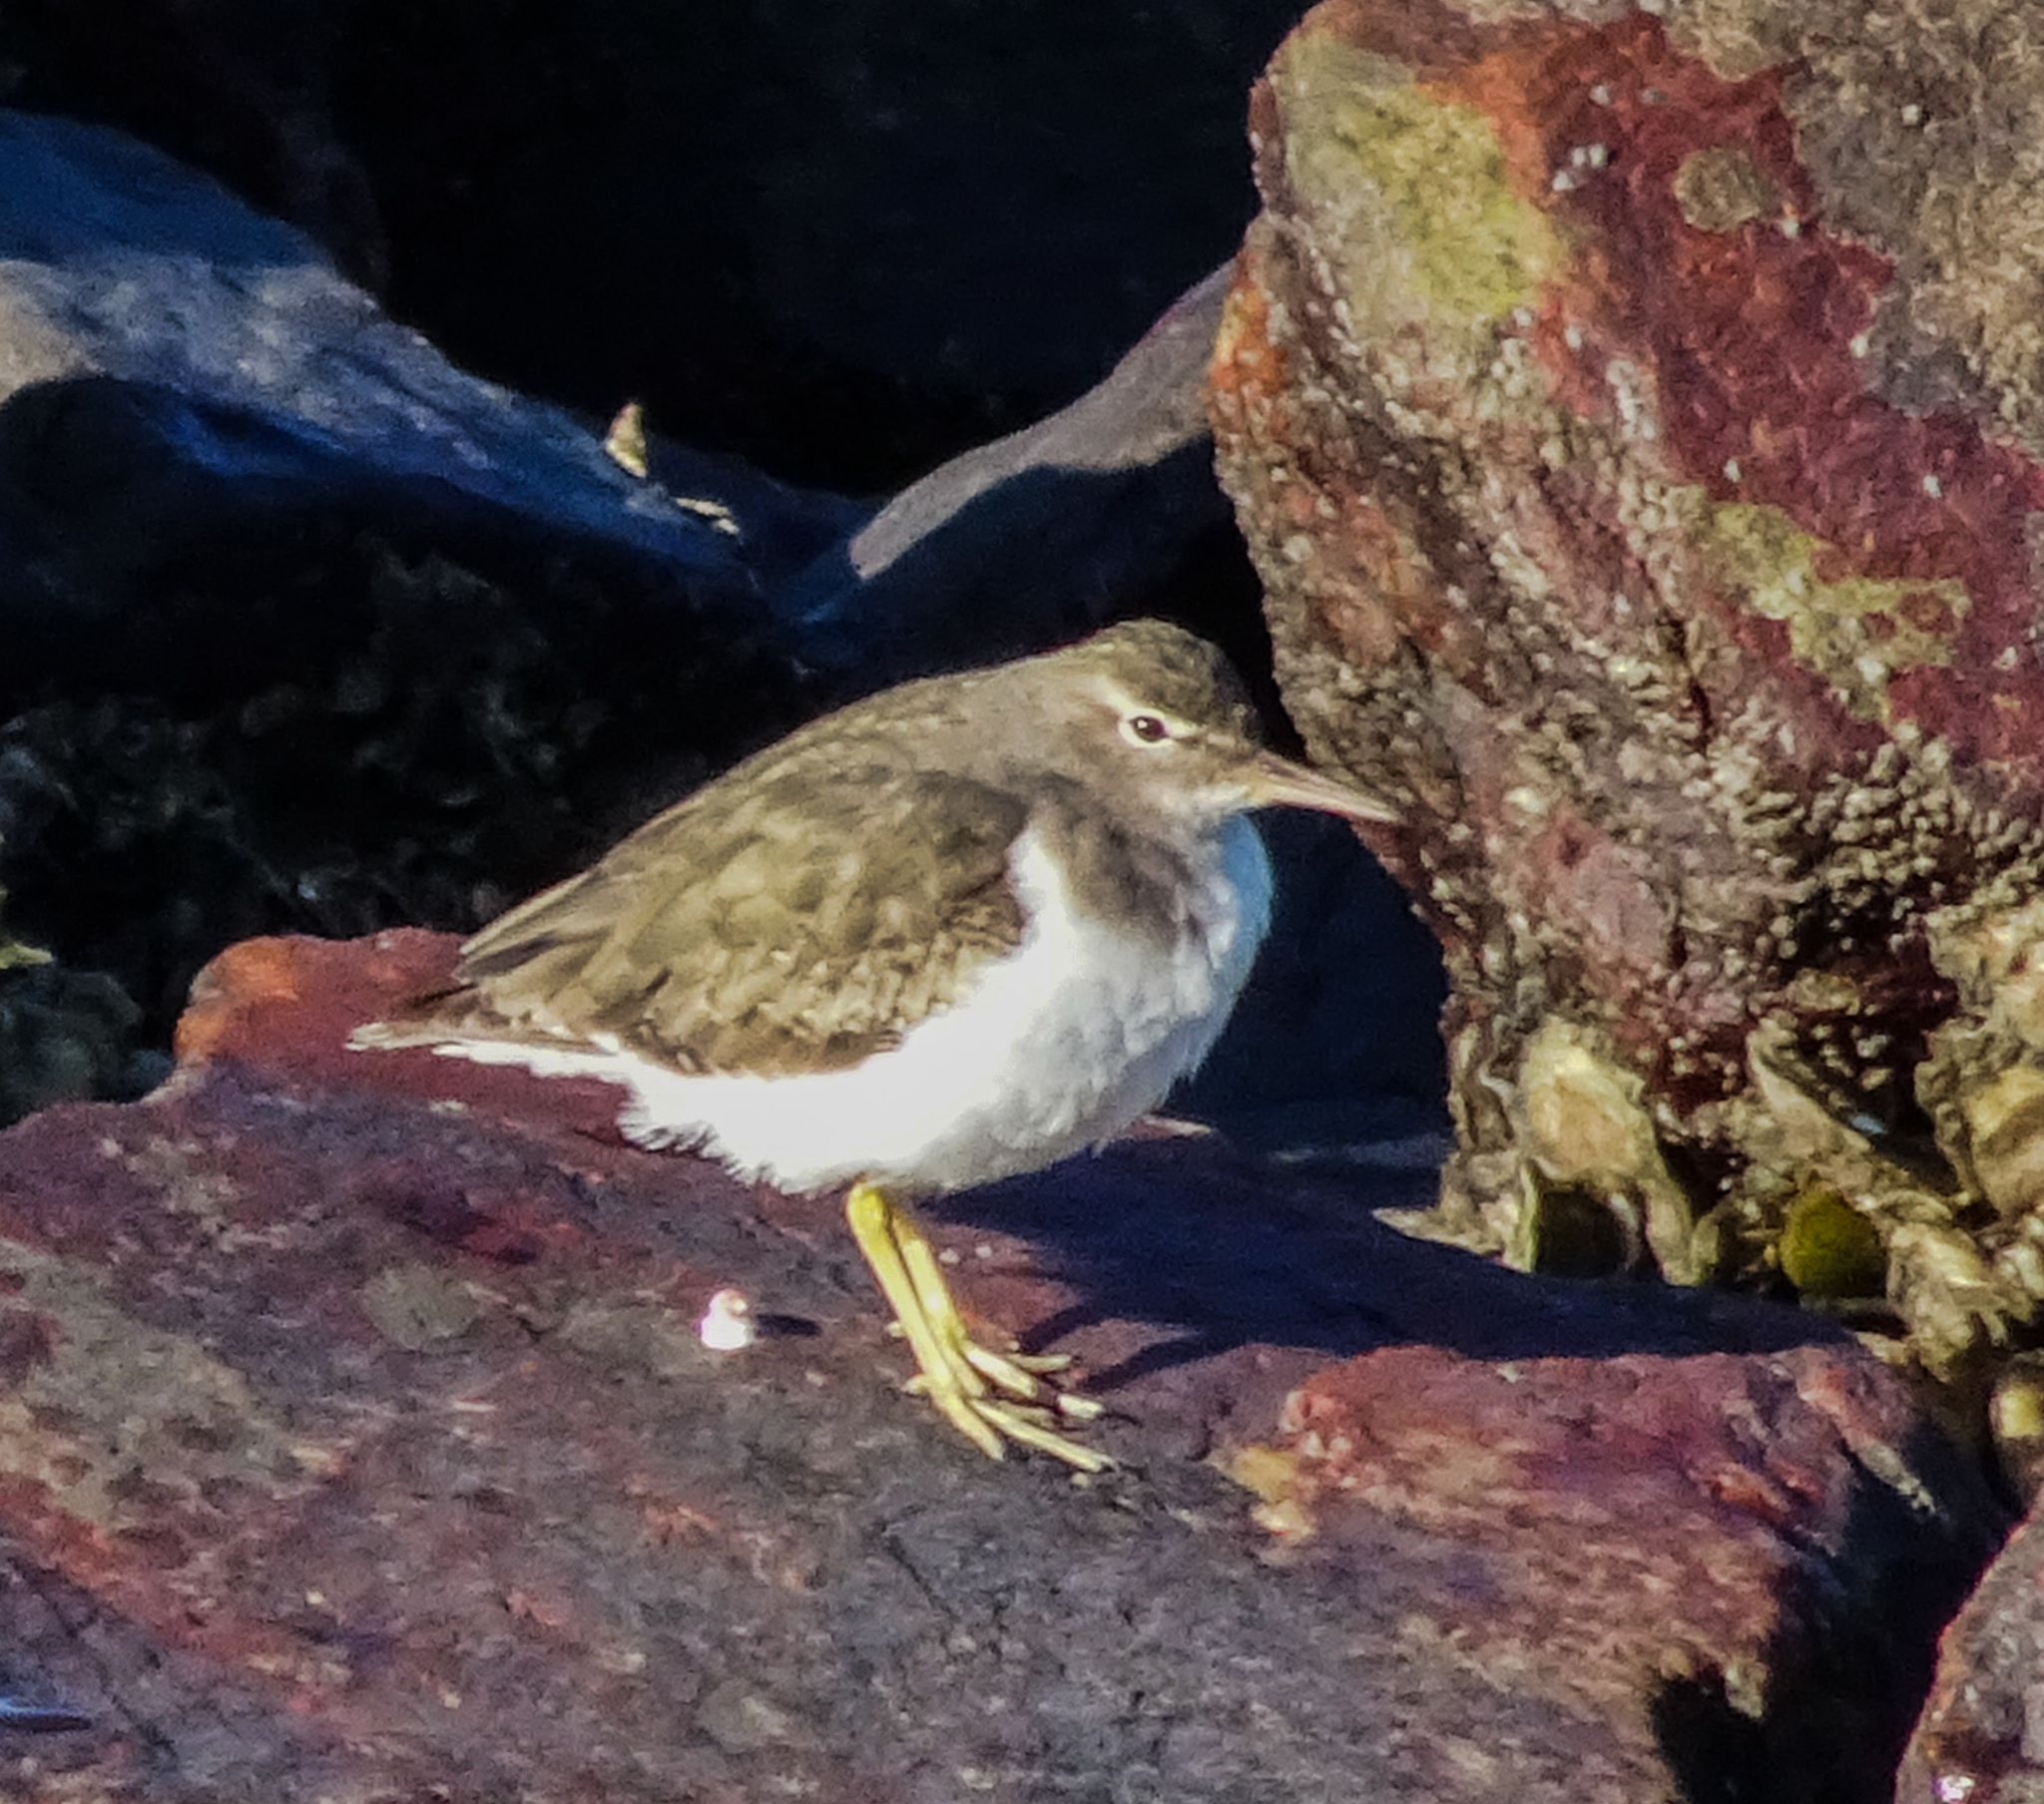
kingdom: Animalia
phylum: Chordata
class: Aves
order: Charadriiformes
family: Scolopacidae
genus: Actitis
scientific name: Actitis macularius
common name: Spotted sandpiper
